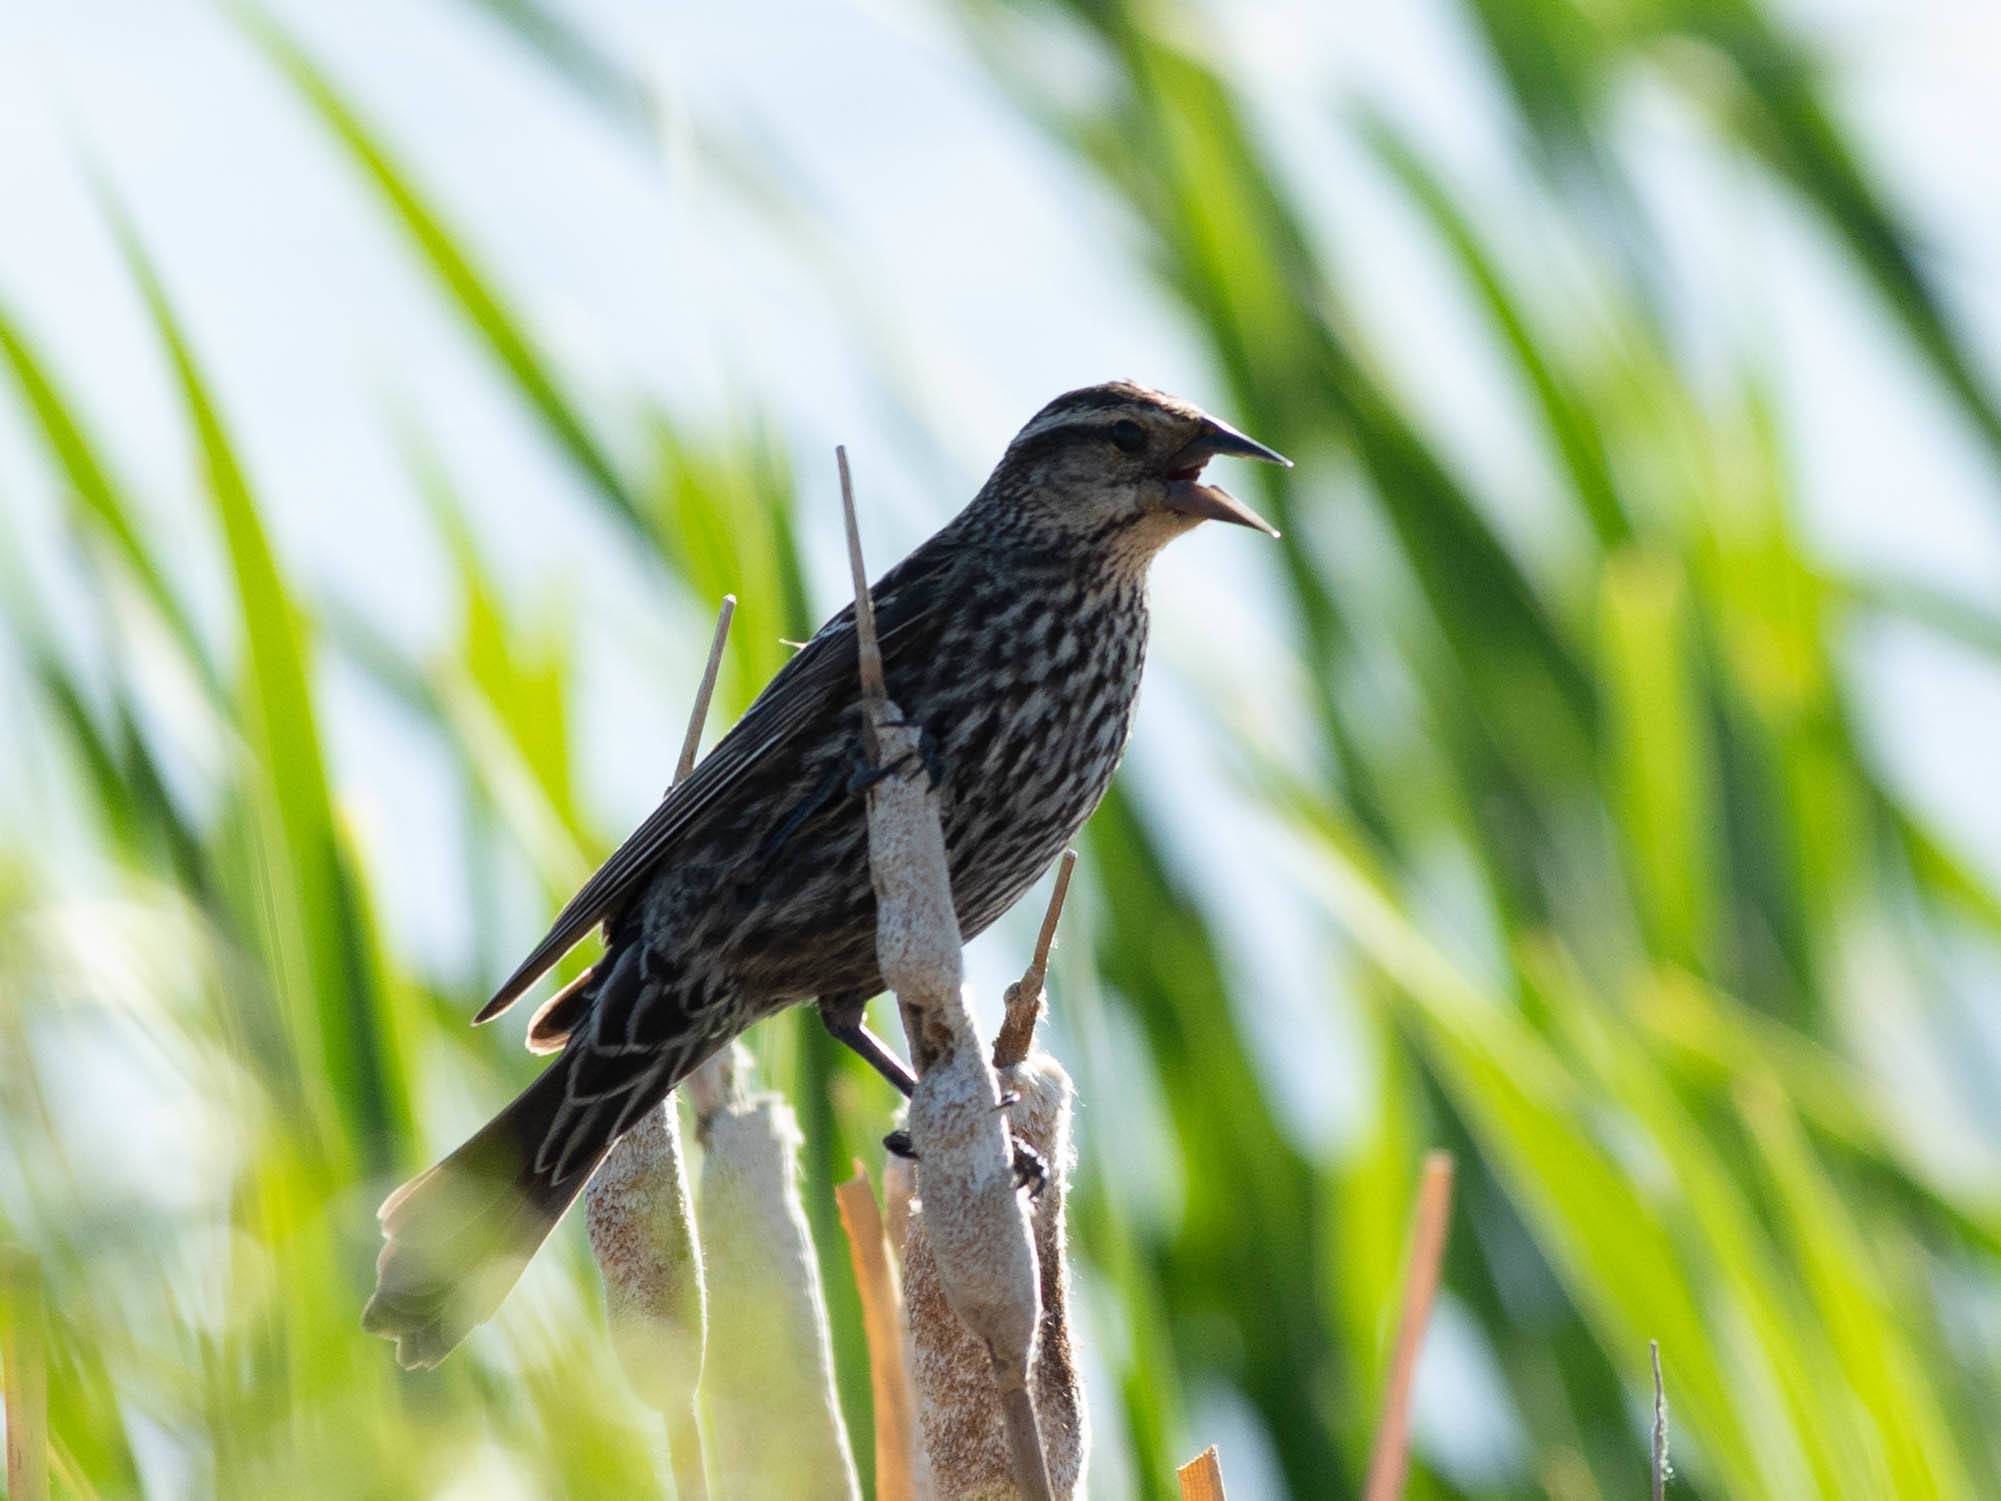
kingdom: Animalia
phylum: Chordata
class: Aves
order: Passeriformes
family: Icteridae
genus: Agelaius
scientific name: Agelaius phoeniceus
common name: Red-winged blackbird
